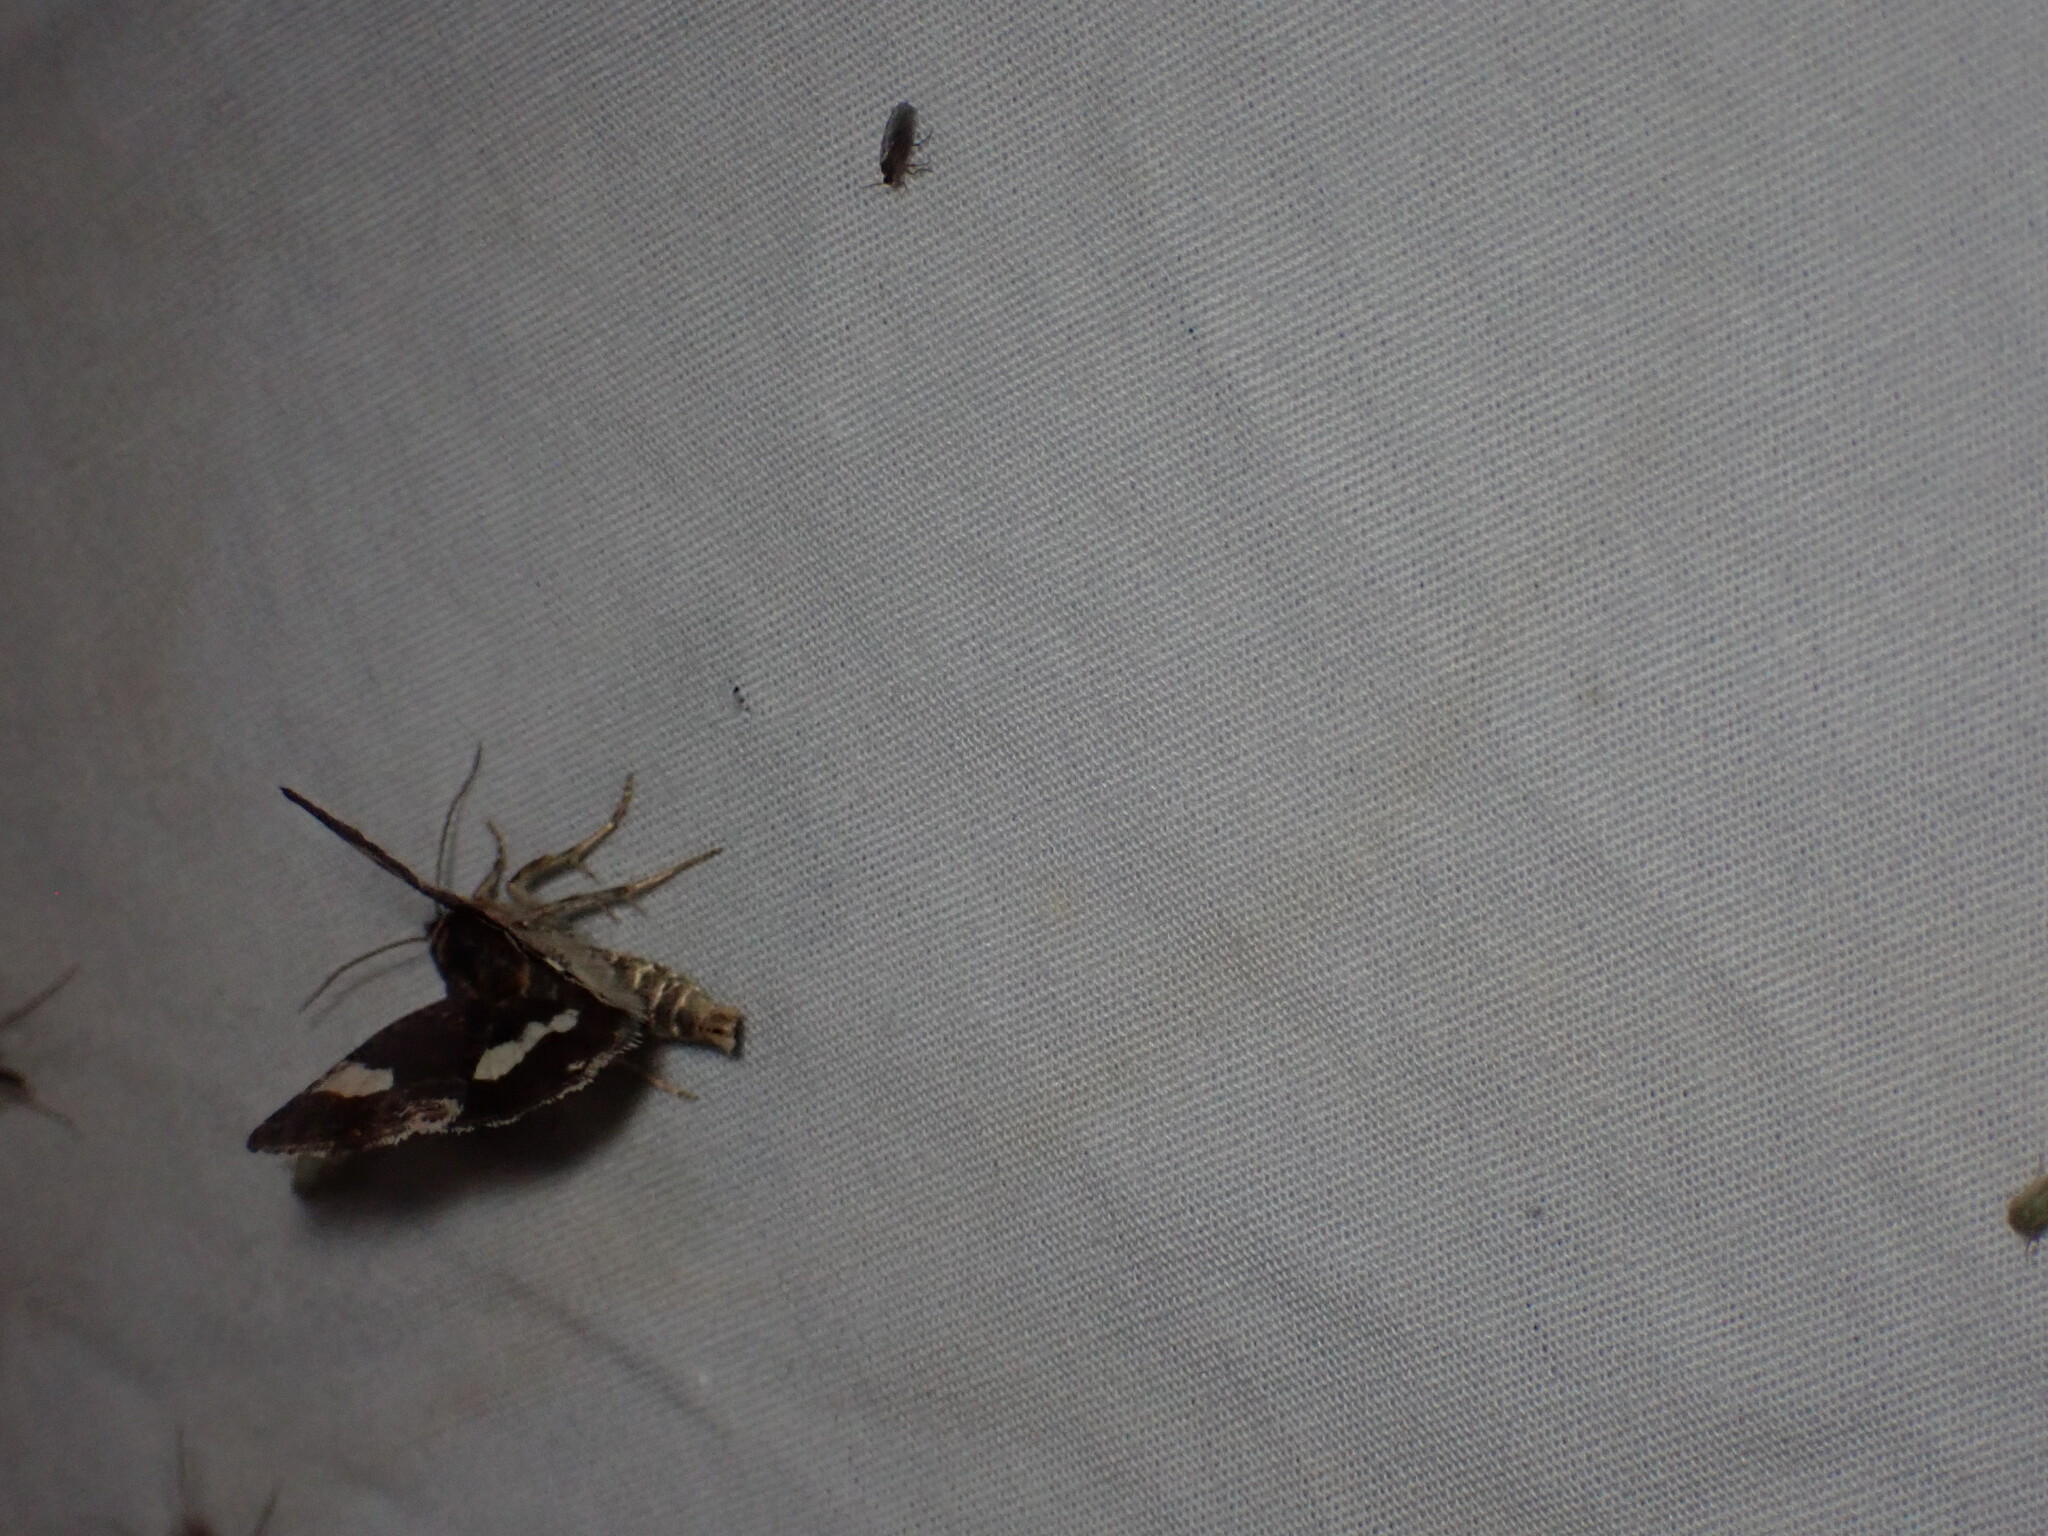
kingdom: Animalia
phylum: Arthropoda
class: Insecta
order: Lepidoptera
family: Erebidae
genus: Tyta
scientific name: Tyta luctuosa
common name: Four-spotted
